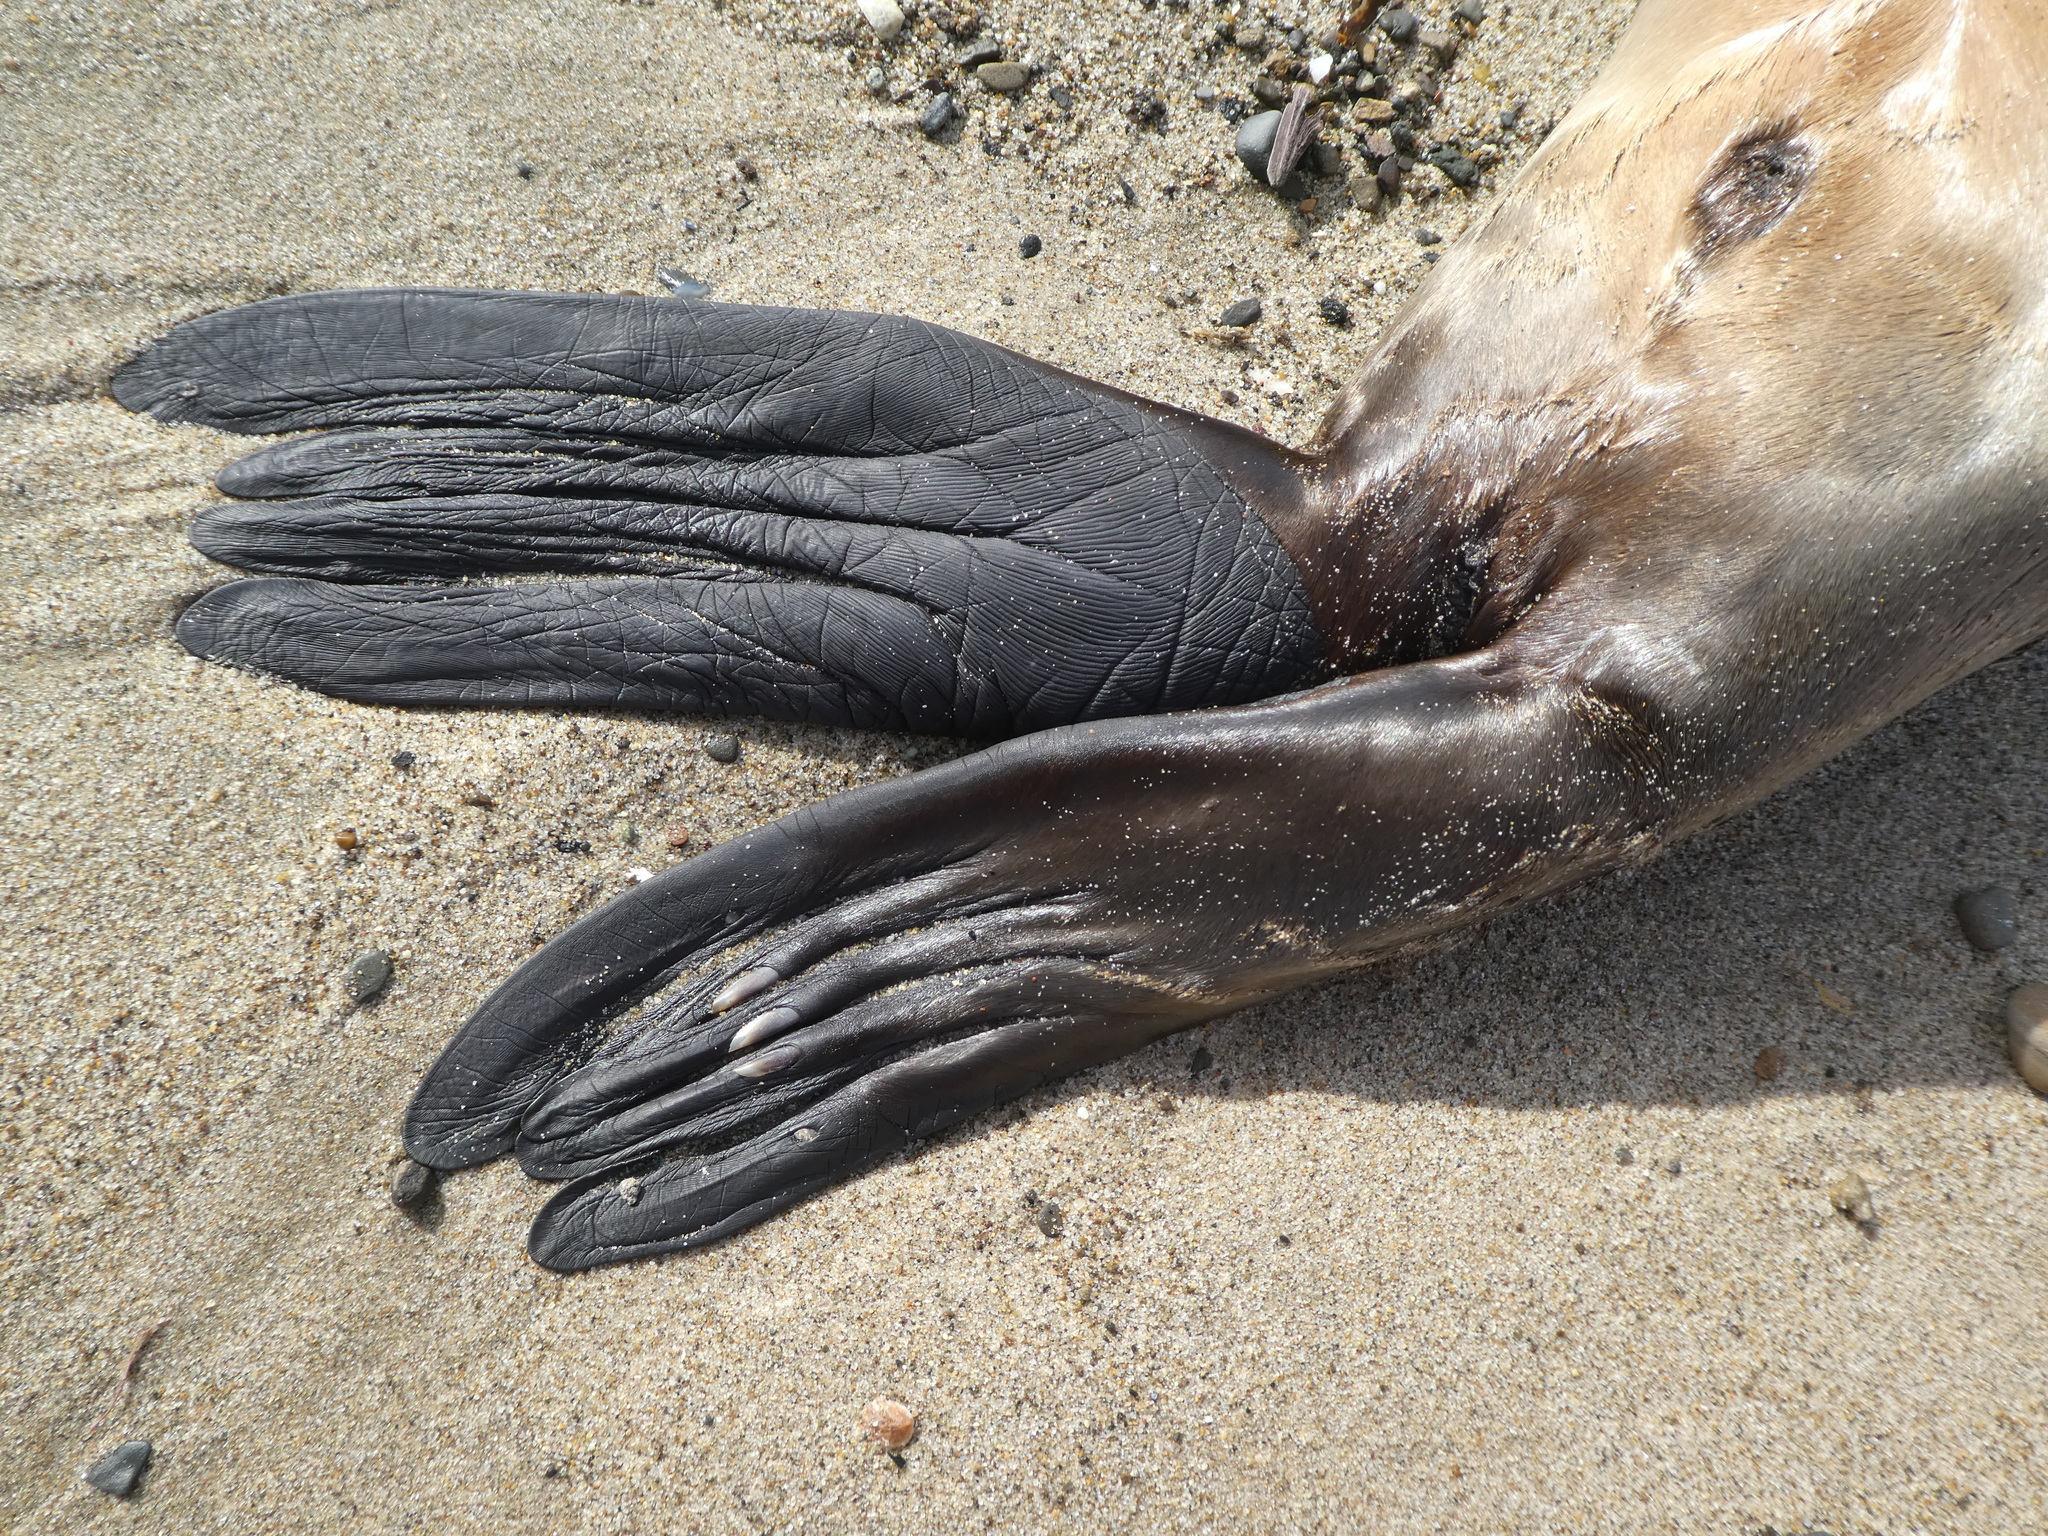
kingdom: Animalia
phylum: Chordata
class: Mammalia
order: Carnivora
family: Otariidae
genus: Zalophus
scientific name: Zalophus californianus
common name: California sea lion
